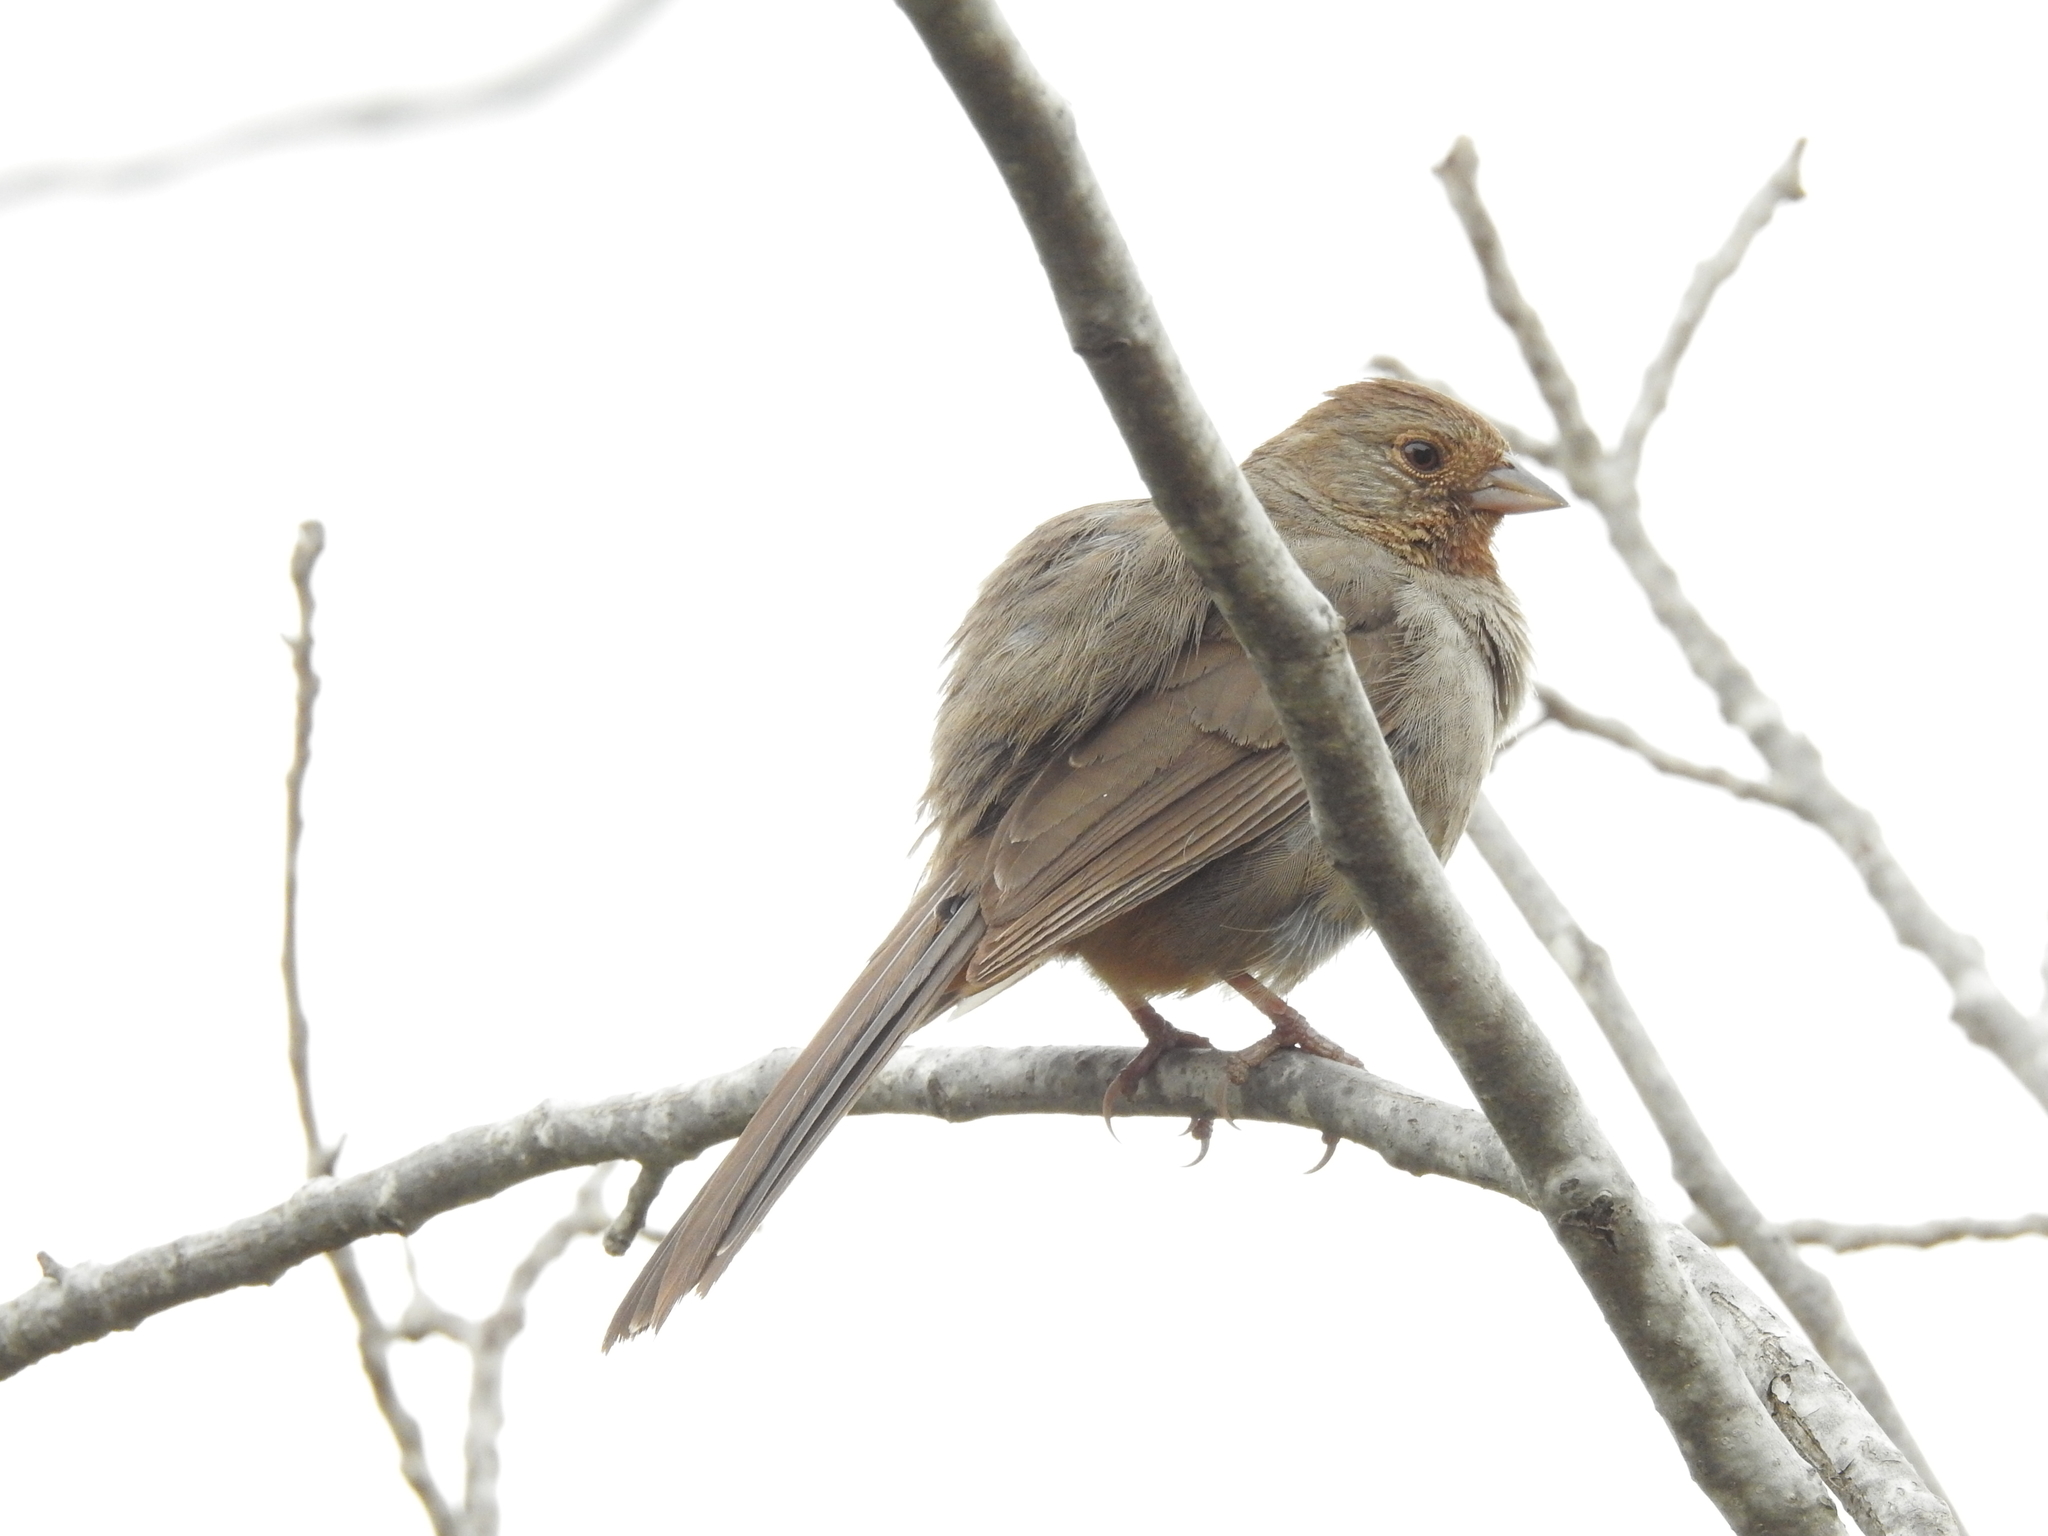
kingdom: Animalia
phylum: Chordata
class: Aves
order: Passeriformes
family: Passerellidae
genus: Melozone
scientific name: Melozone crissalis
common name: California towhee
